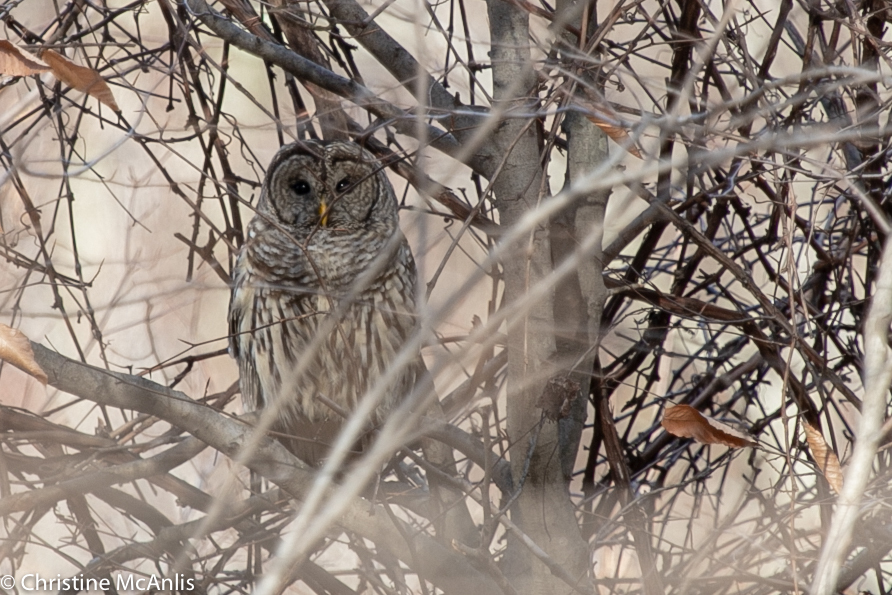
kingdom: Animalia
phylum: Chordata
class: Aves
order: Strigiformes
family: Strigidae
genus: Strix
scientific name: Strix varia
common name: Barred owl
